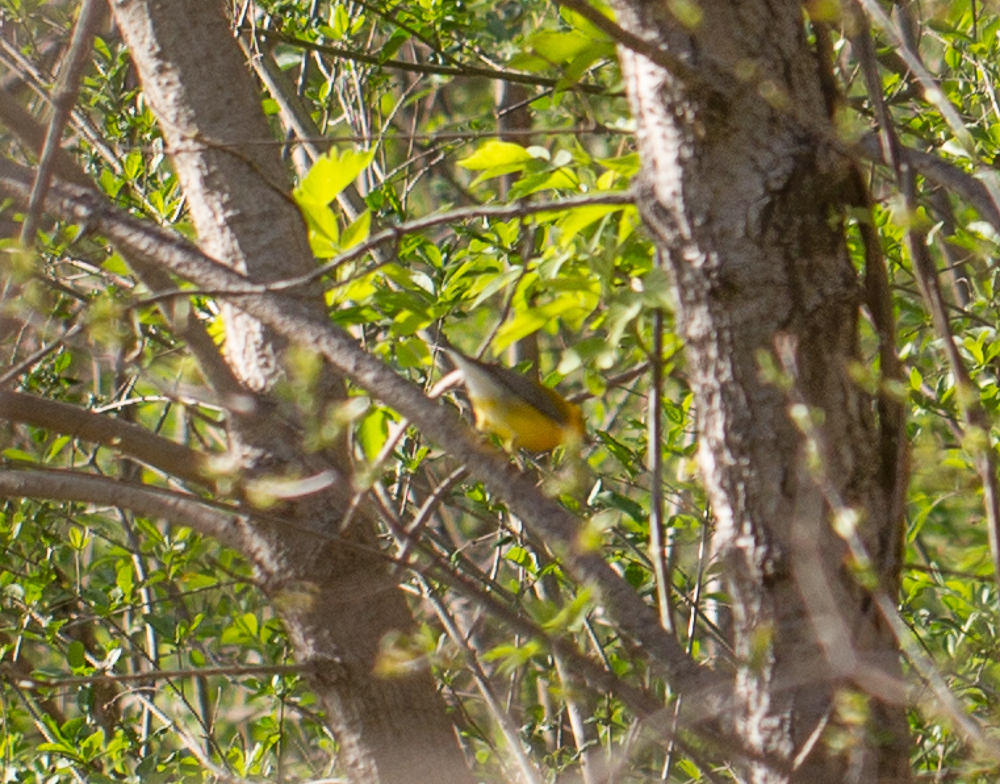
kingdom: Animalia
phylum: Chordata
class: Aves
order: Passeriformes
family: Parulidae
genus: Protonotaria
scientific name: Protonotaria citrea
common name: Prothonotary warbler
